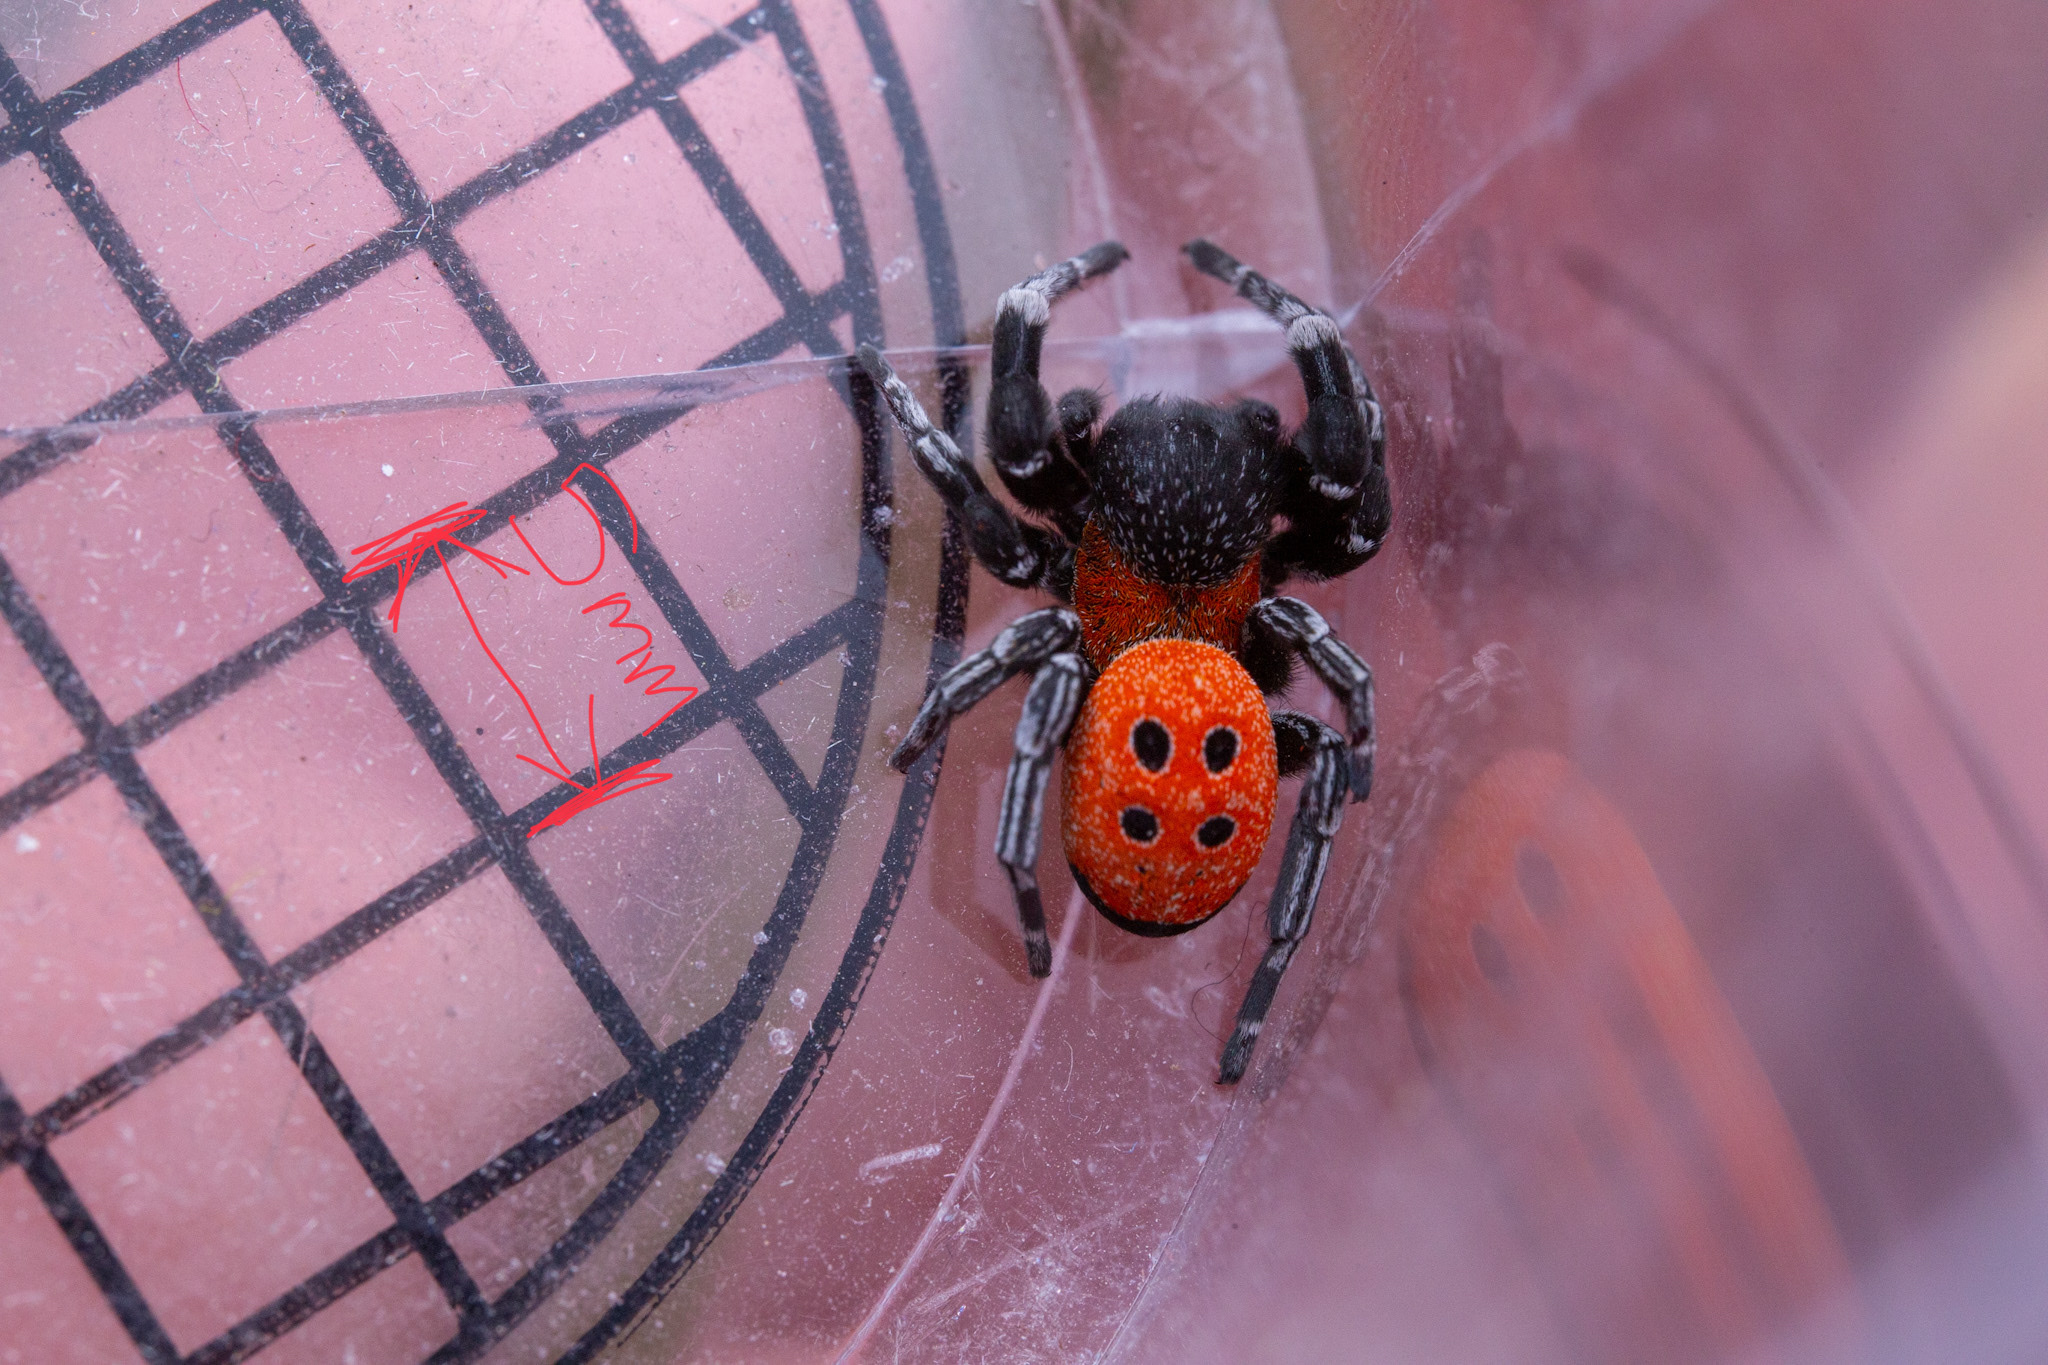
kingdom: Animalia
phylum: Arthropoda
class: Arachnida
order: Araneae
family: Eresidae
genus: Eresus
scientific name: Eresus
